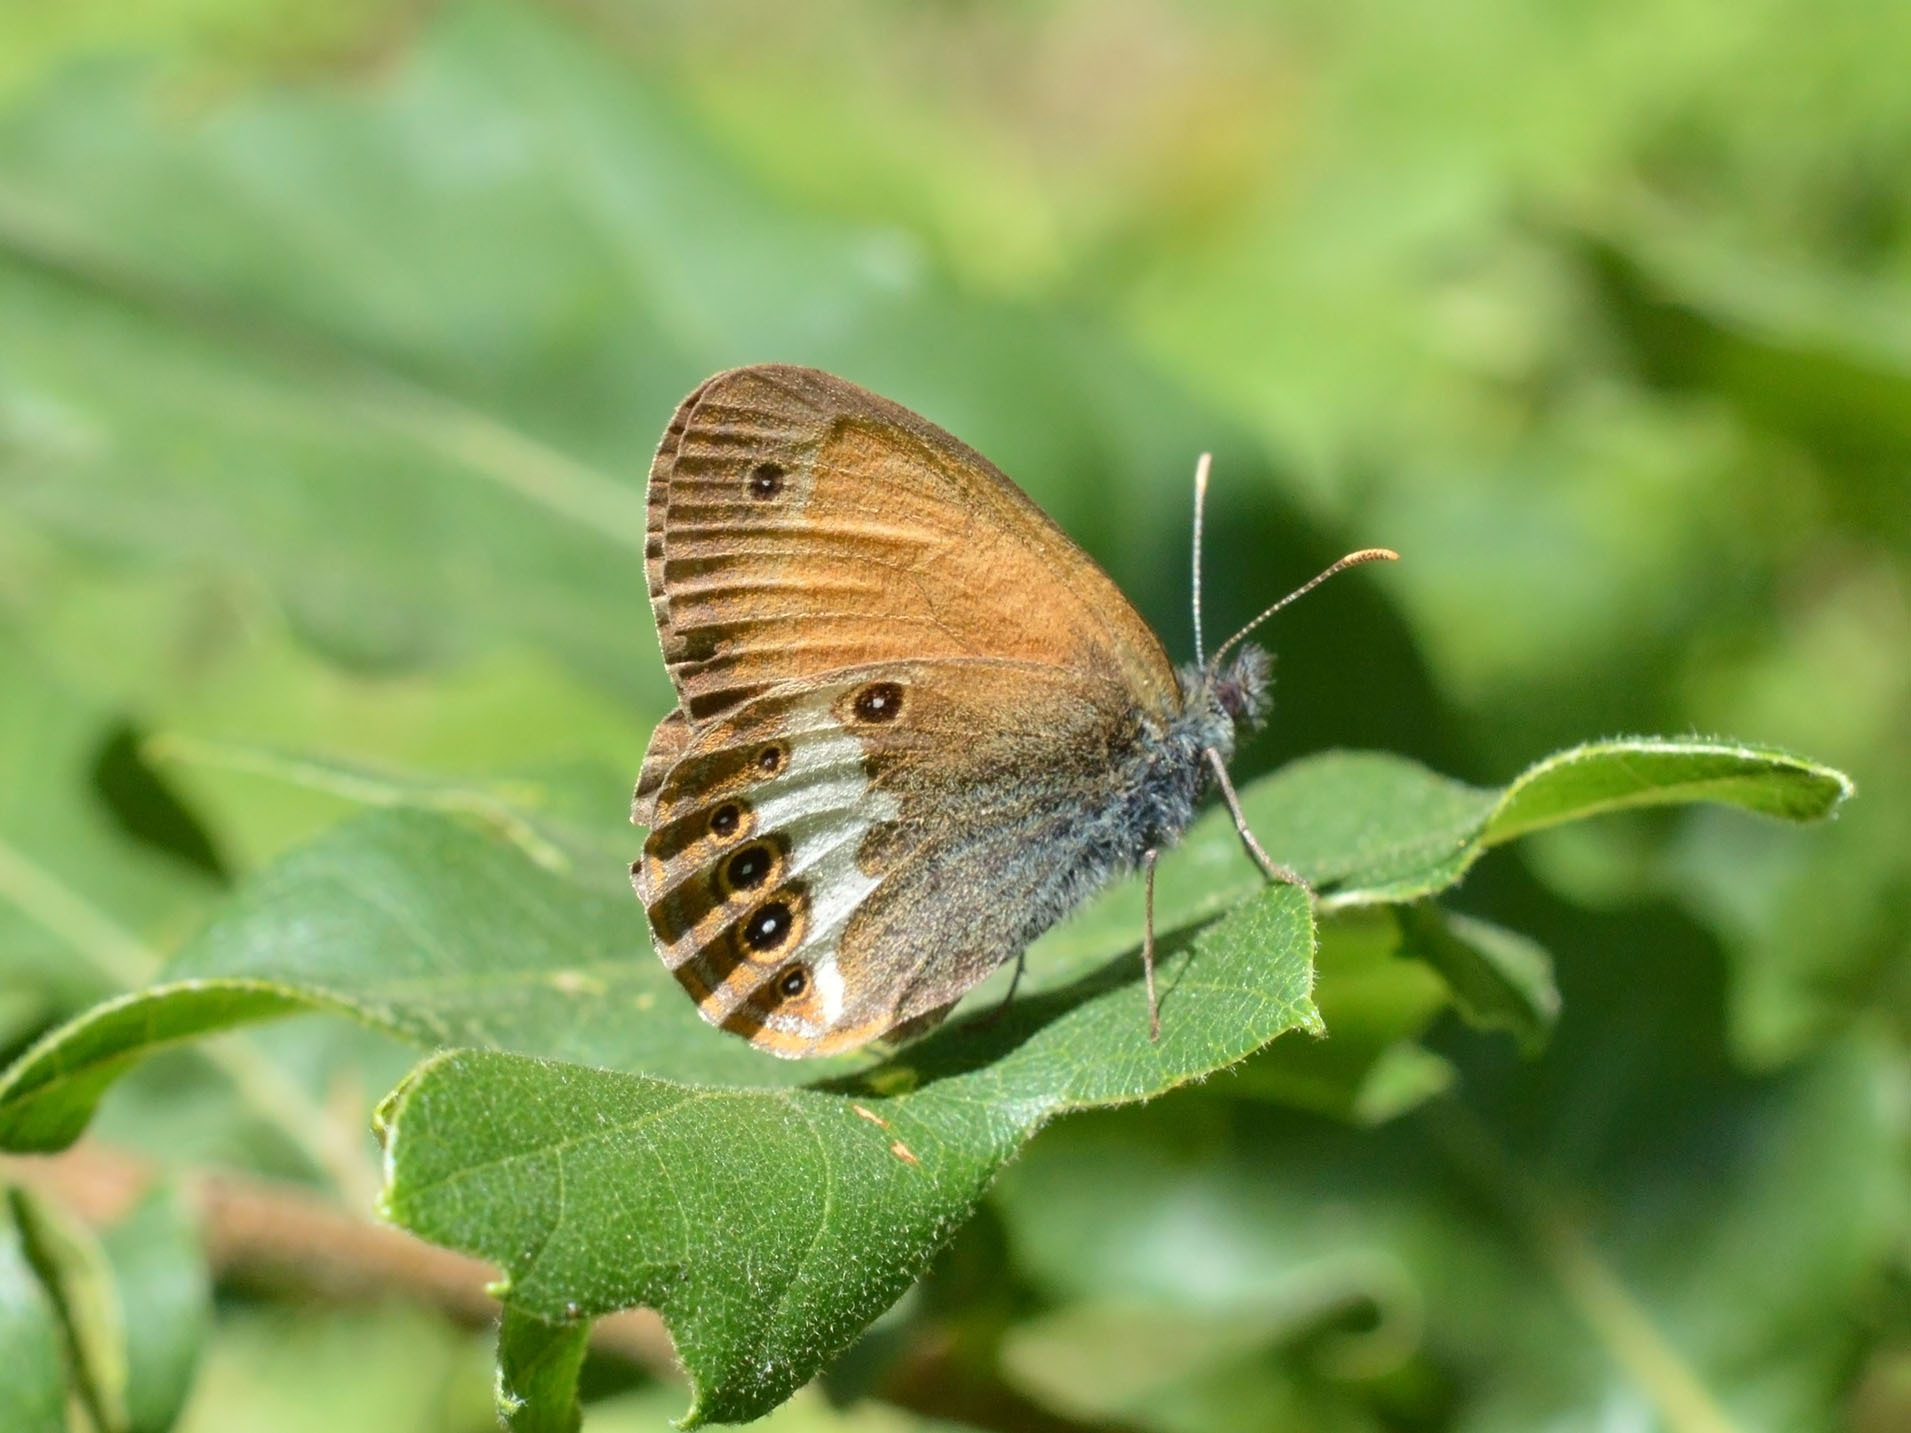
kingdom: Animalia
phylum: Arthropoda
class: Insecta
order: Lepidoptera
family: Nymphalidae
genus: Coenonympha
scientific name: Coenonympha arcania
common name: Pearly heath
